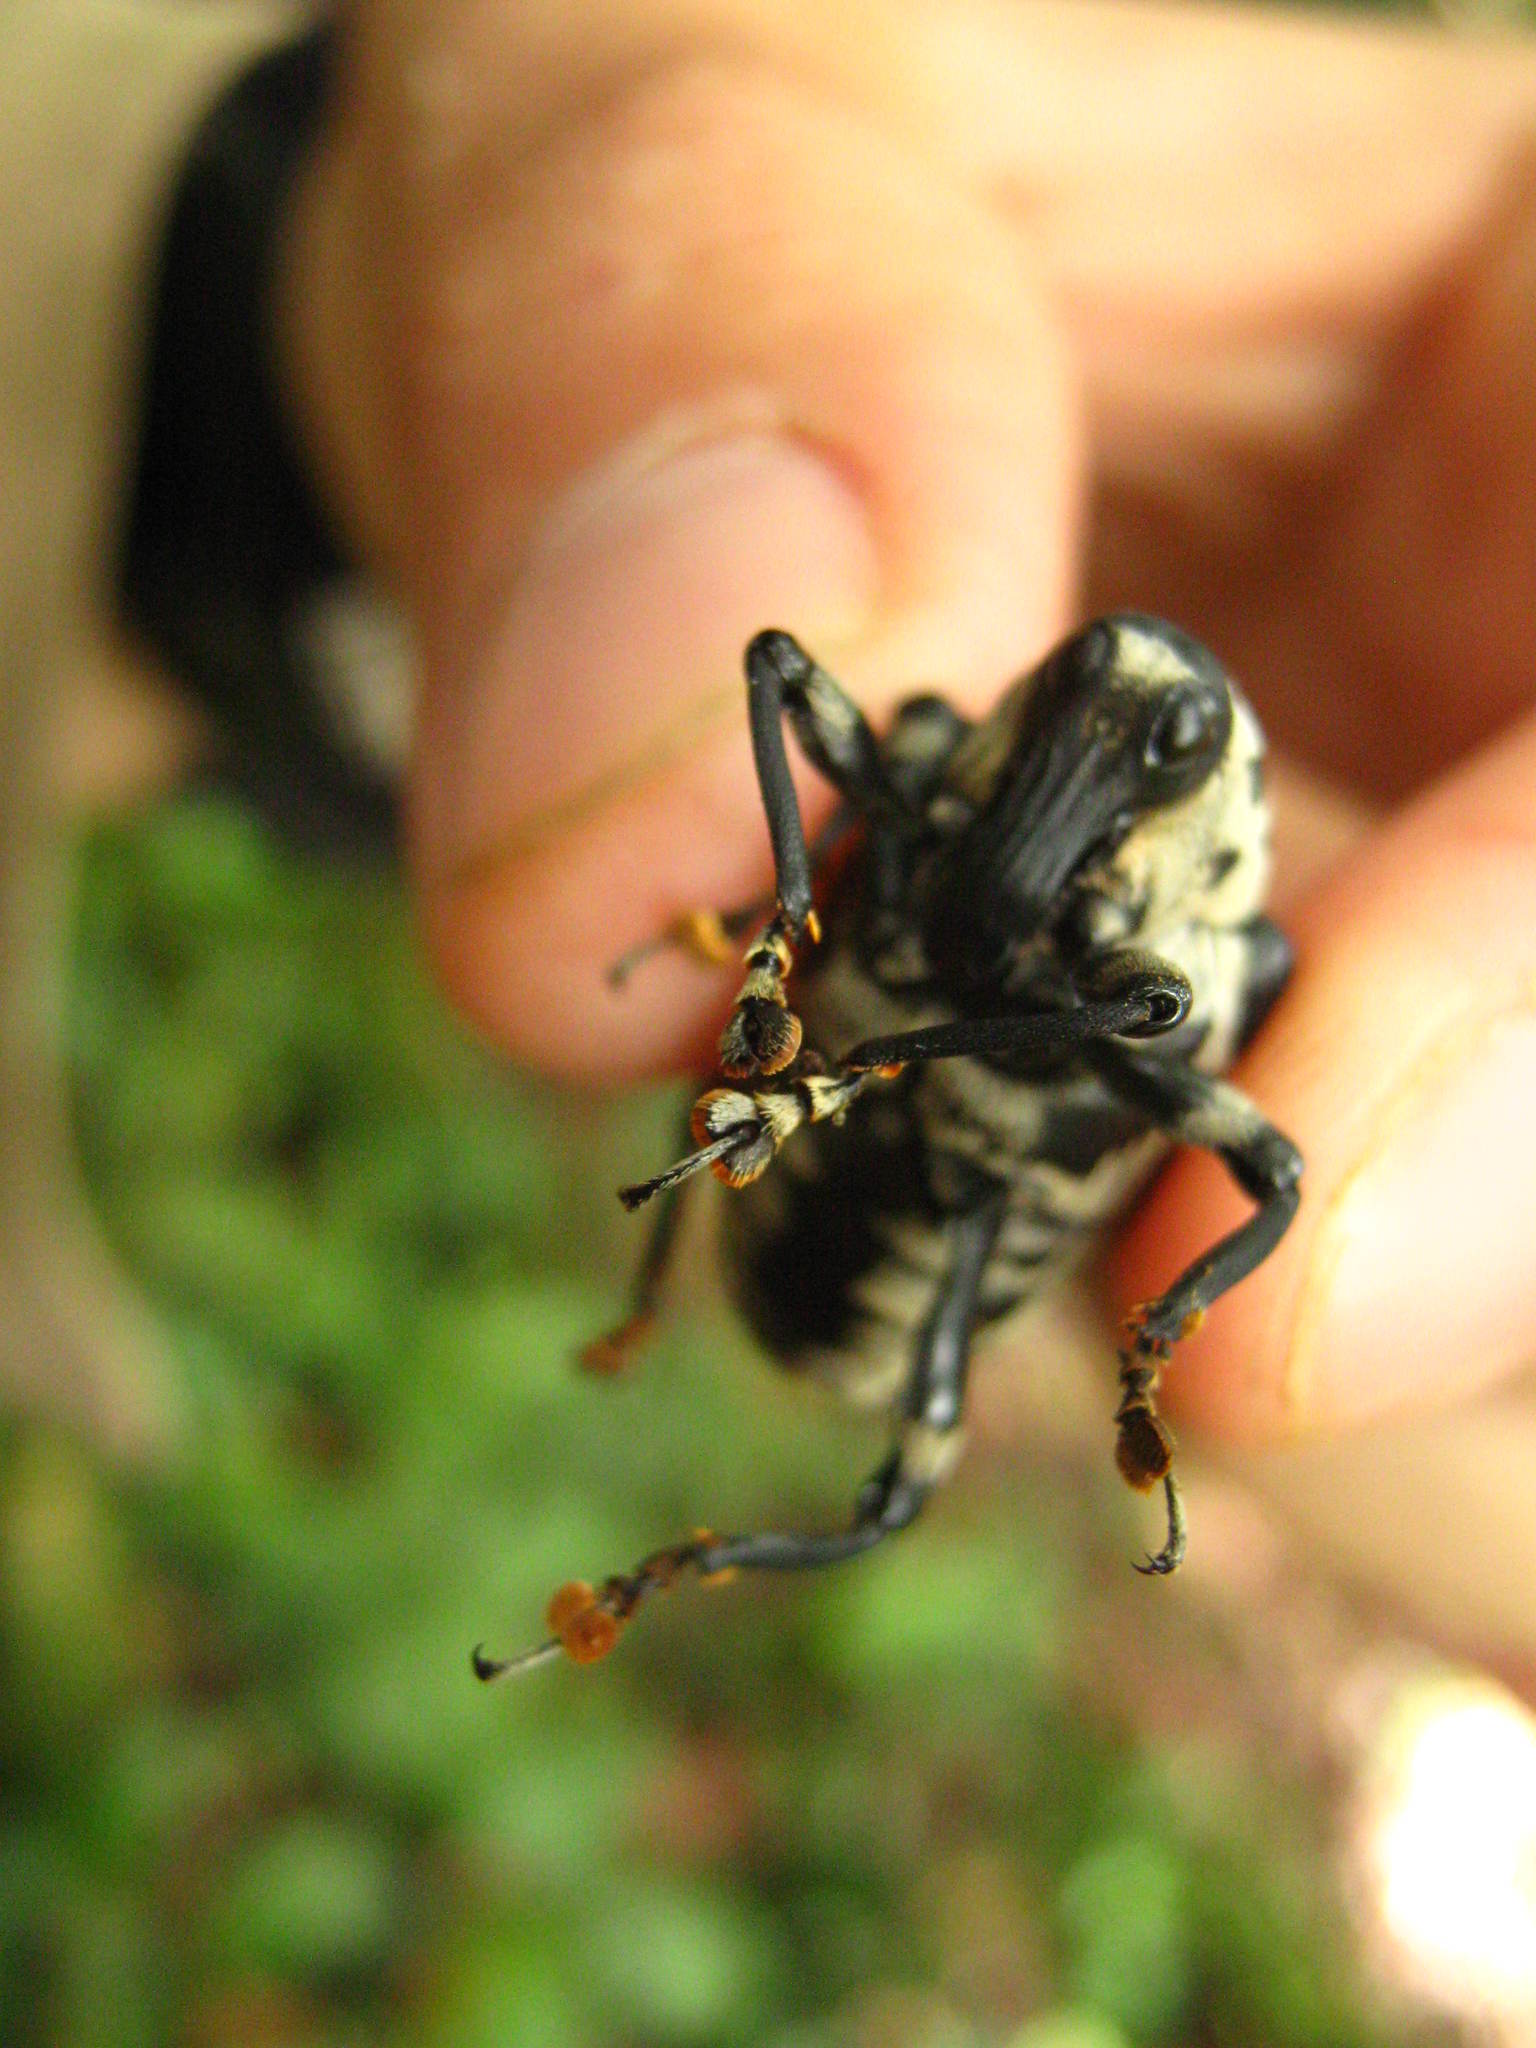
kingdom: Animalia
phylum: Arthropoda
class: Insecta
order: Coleoptera
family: Curculionidae
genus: Cratosomus
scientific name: Cratosomus punctulatus
